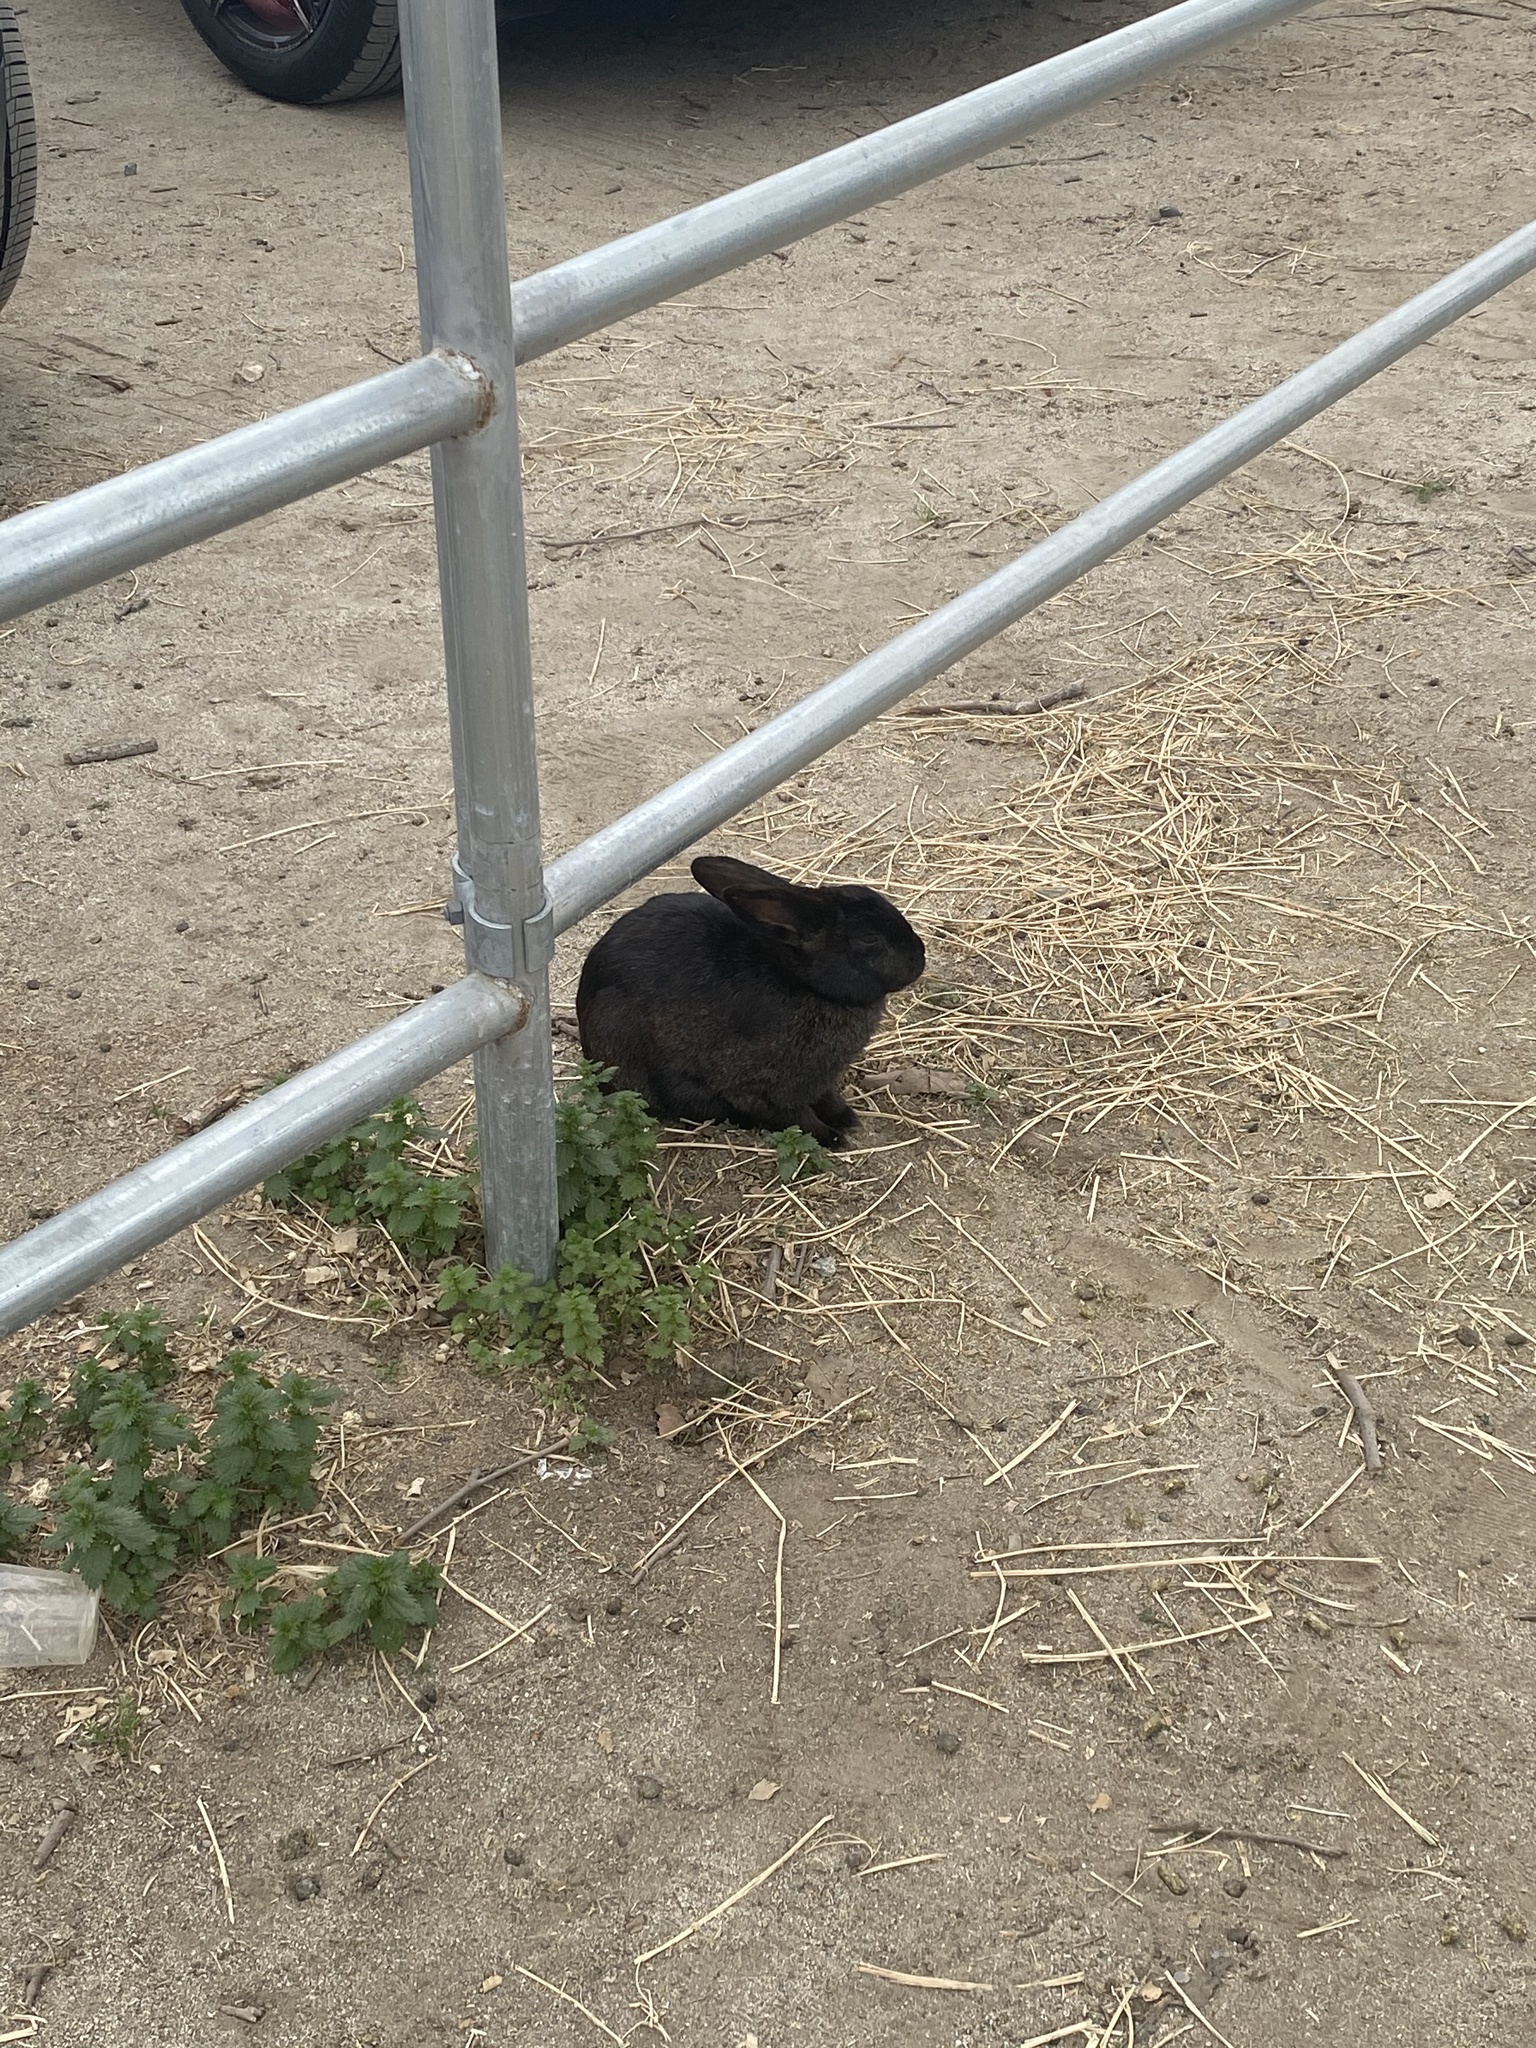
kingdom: Animalia
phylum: Chordata
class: Mammalia
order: Lagomorpha
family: Leporidae
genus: Oryctolagus
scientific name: Oryctolagus cuniculus
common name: European rabbit
